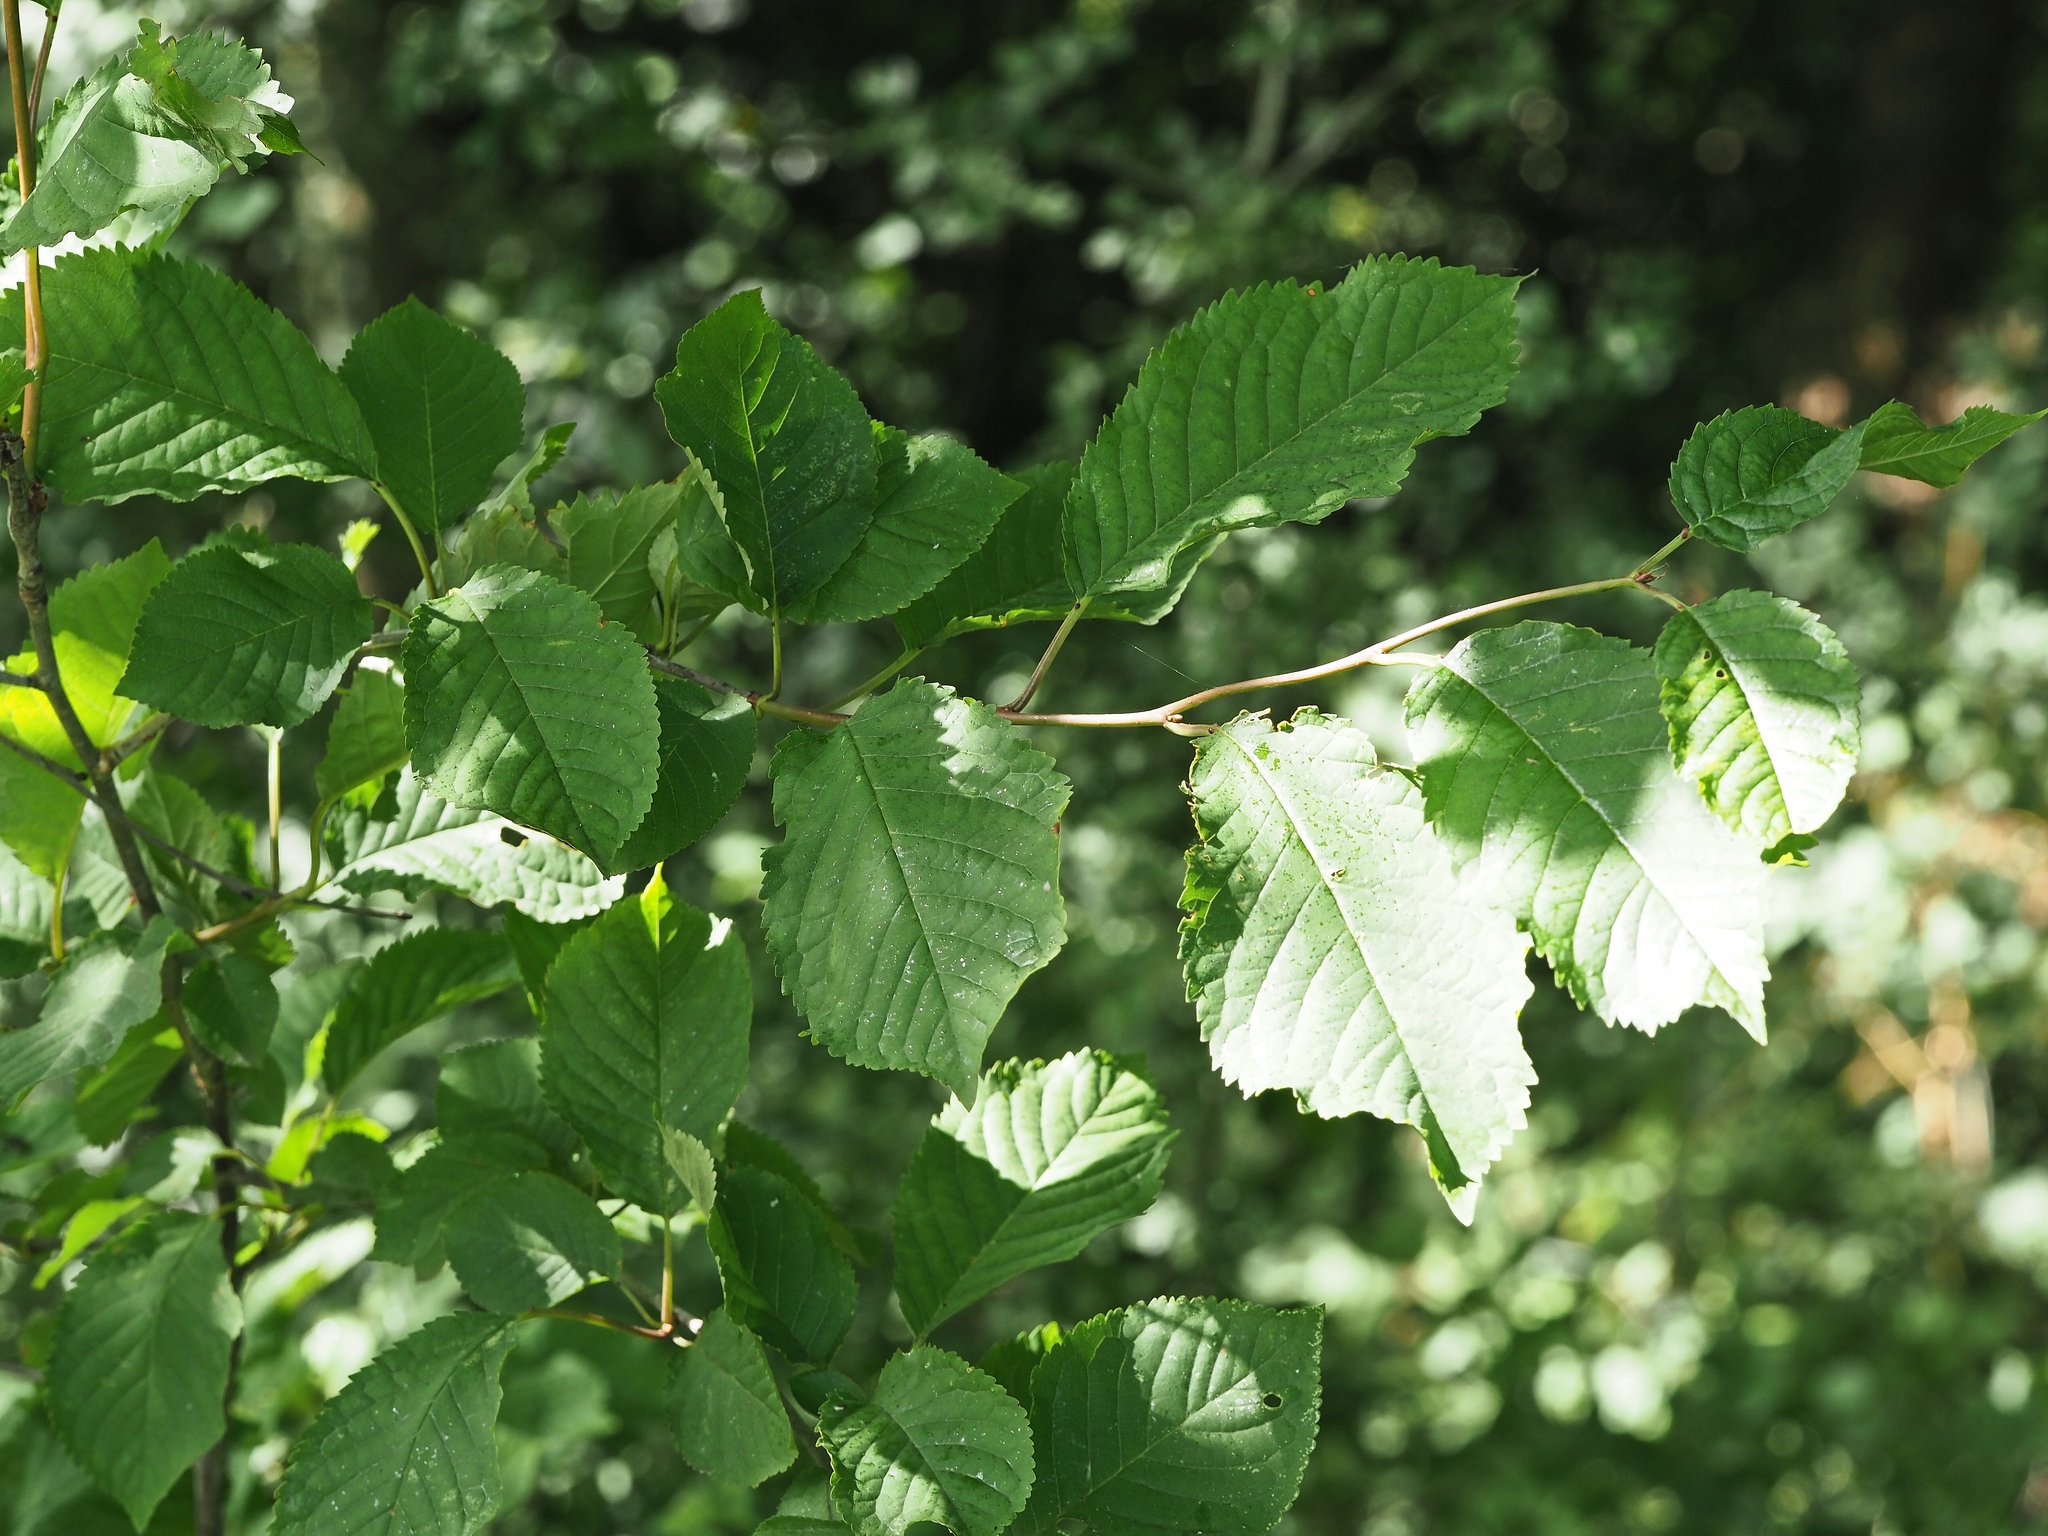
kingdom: Plantae
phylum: Tracheophyta
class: Magnoliopsida
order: Rosales
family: Rosaceae
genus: Prunus
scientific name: Prunus avium
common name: Sweet cherry
